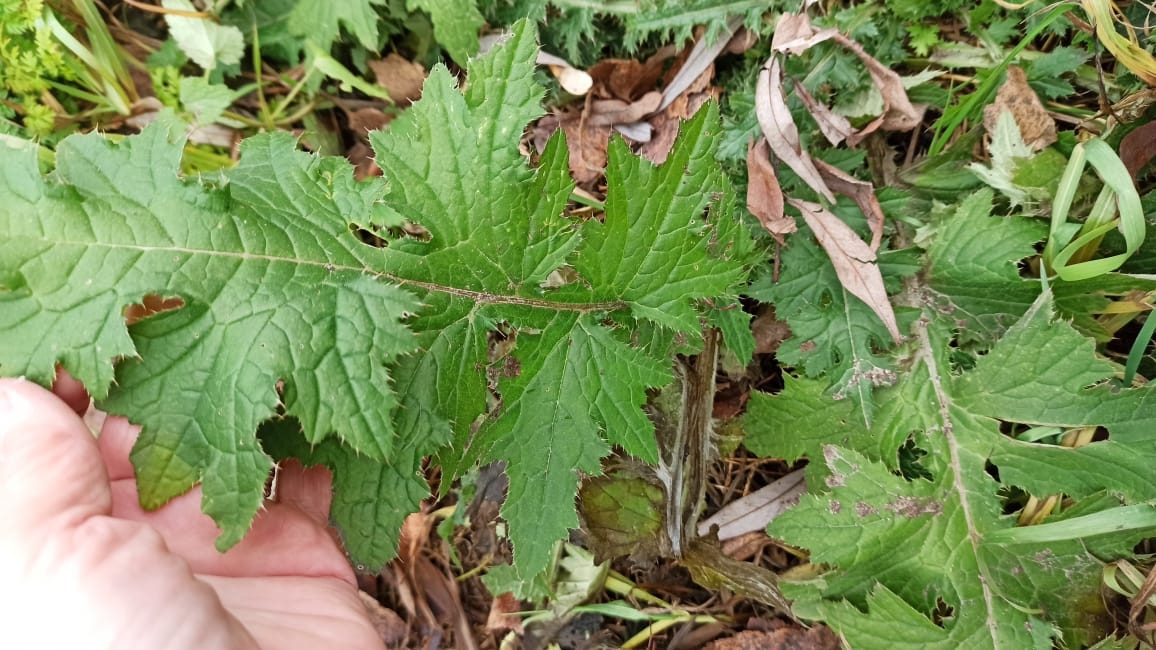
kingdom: Plantae
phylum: Tracheophyta
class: Magnoliopsida
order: Asterales
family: Asteraceae
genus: Carduus
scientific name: Carduus crispus
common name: Welted thistle
